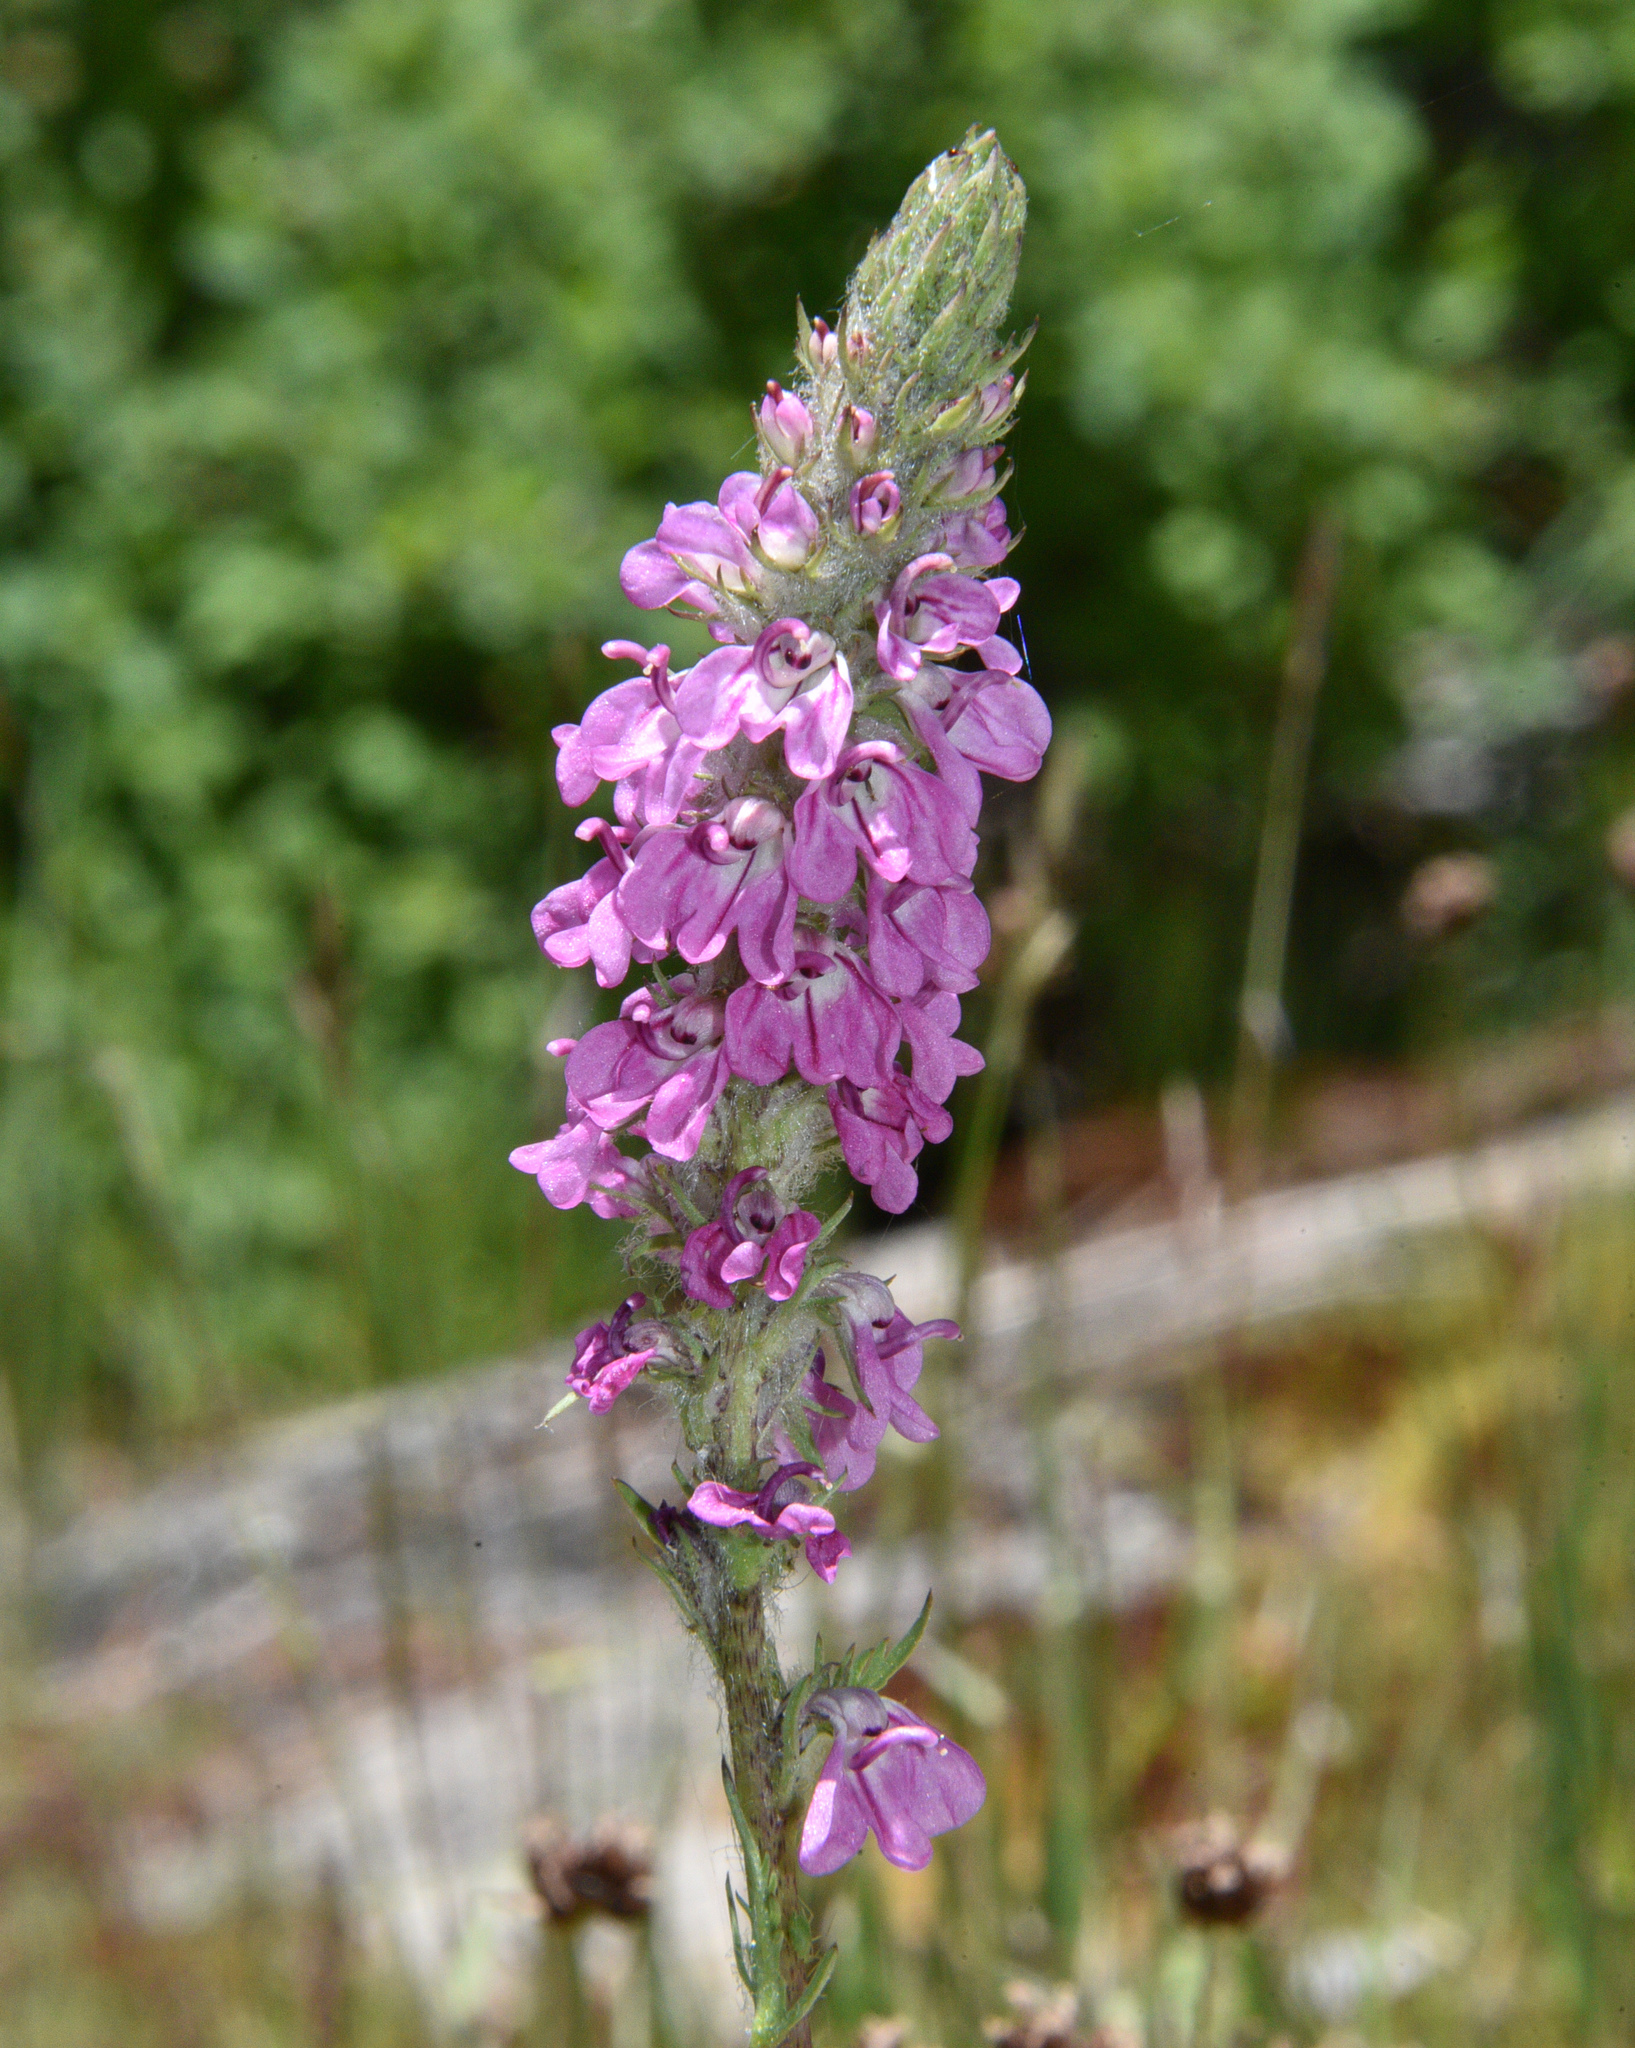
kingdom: Plantae
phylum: Tracheophyta
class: Magnoliopsida
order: Lamiales
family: Orobanchaceae
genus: Pedicularis
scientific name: Pedicularis attollens
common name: Slender pedicularis
